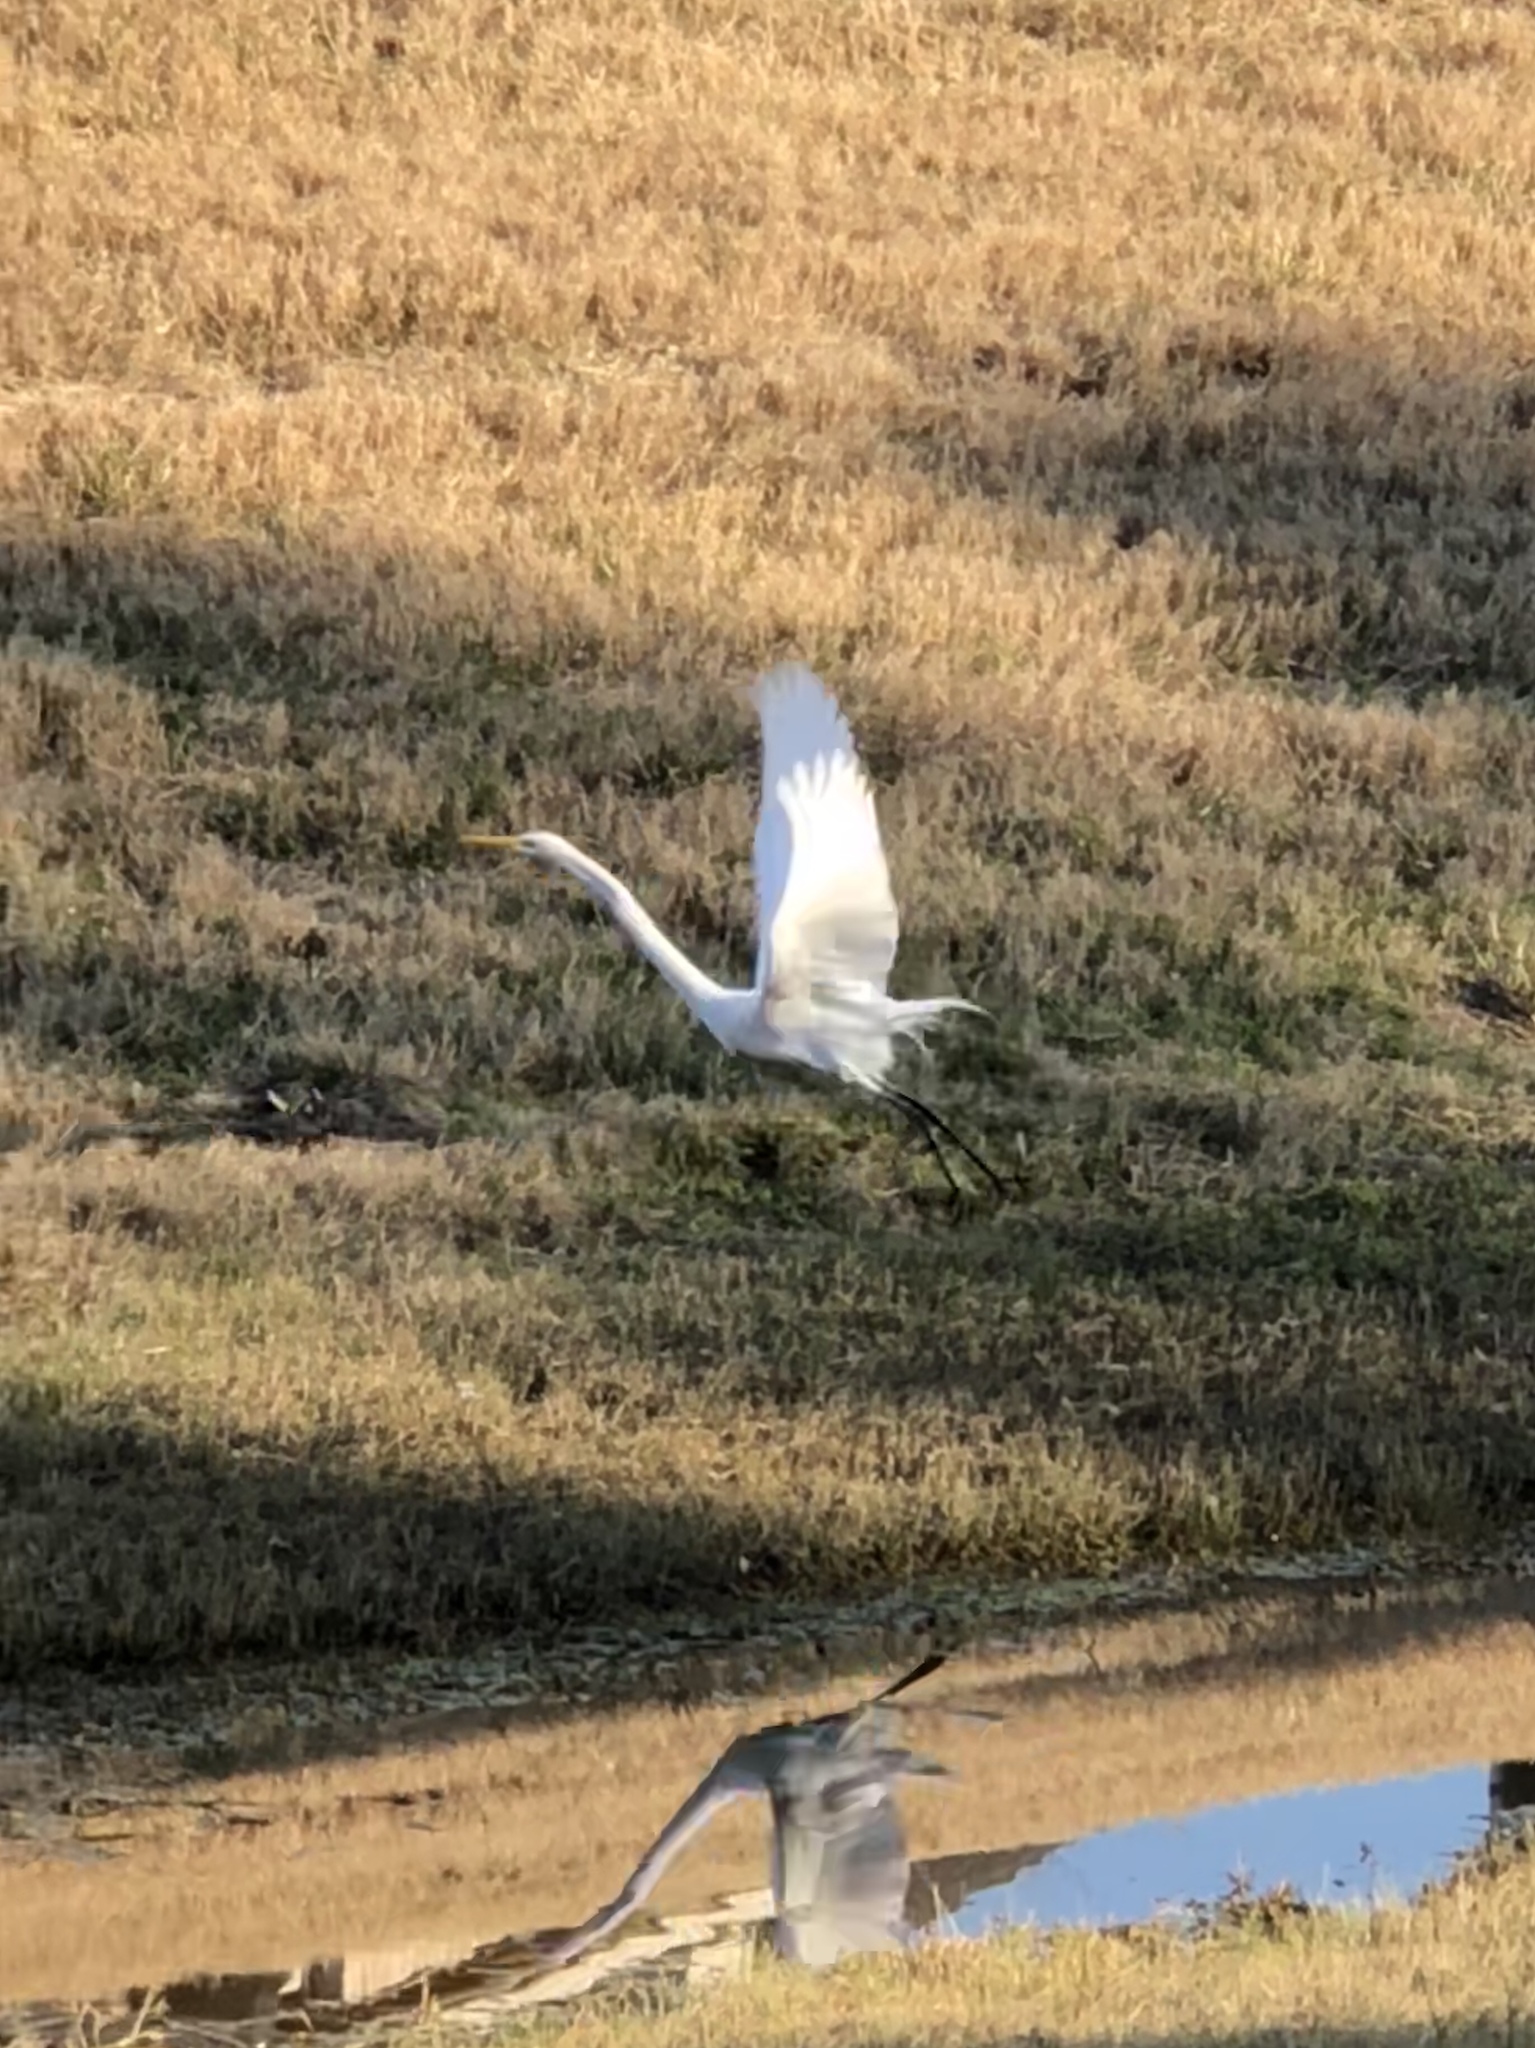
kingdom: Animalia
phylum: Chordata
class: Aves
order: Pelecaniformes
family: Ardeidae
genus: Ardea
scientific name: Ardea alba
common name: Great egret
